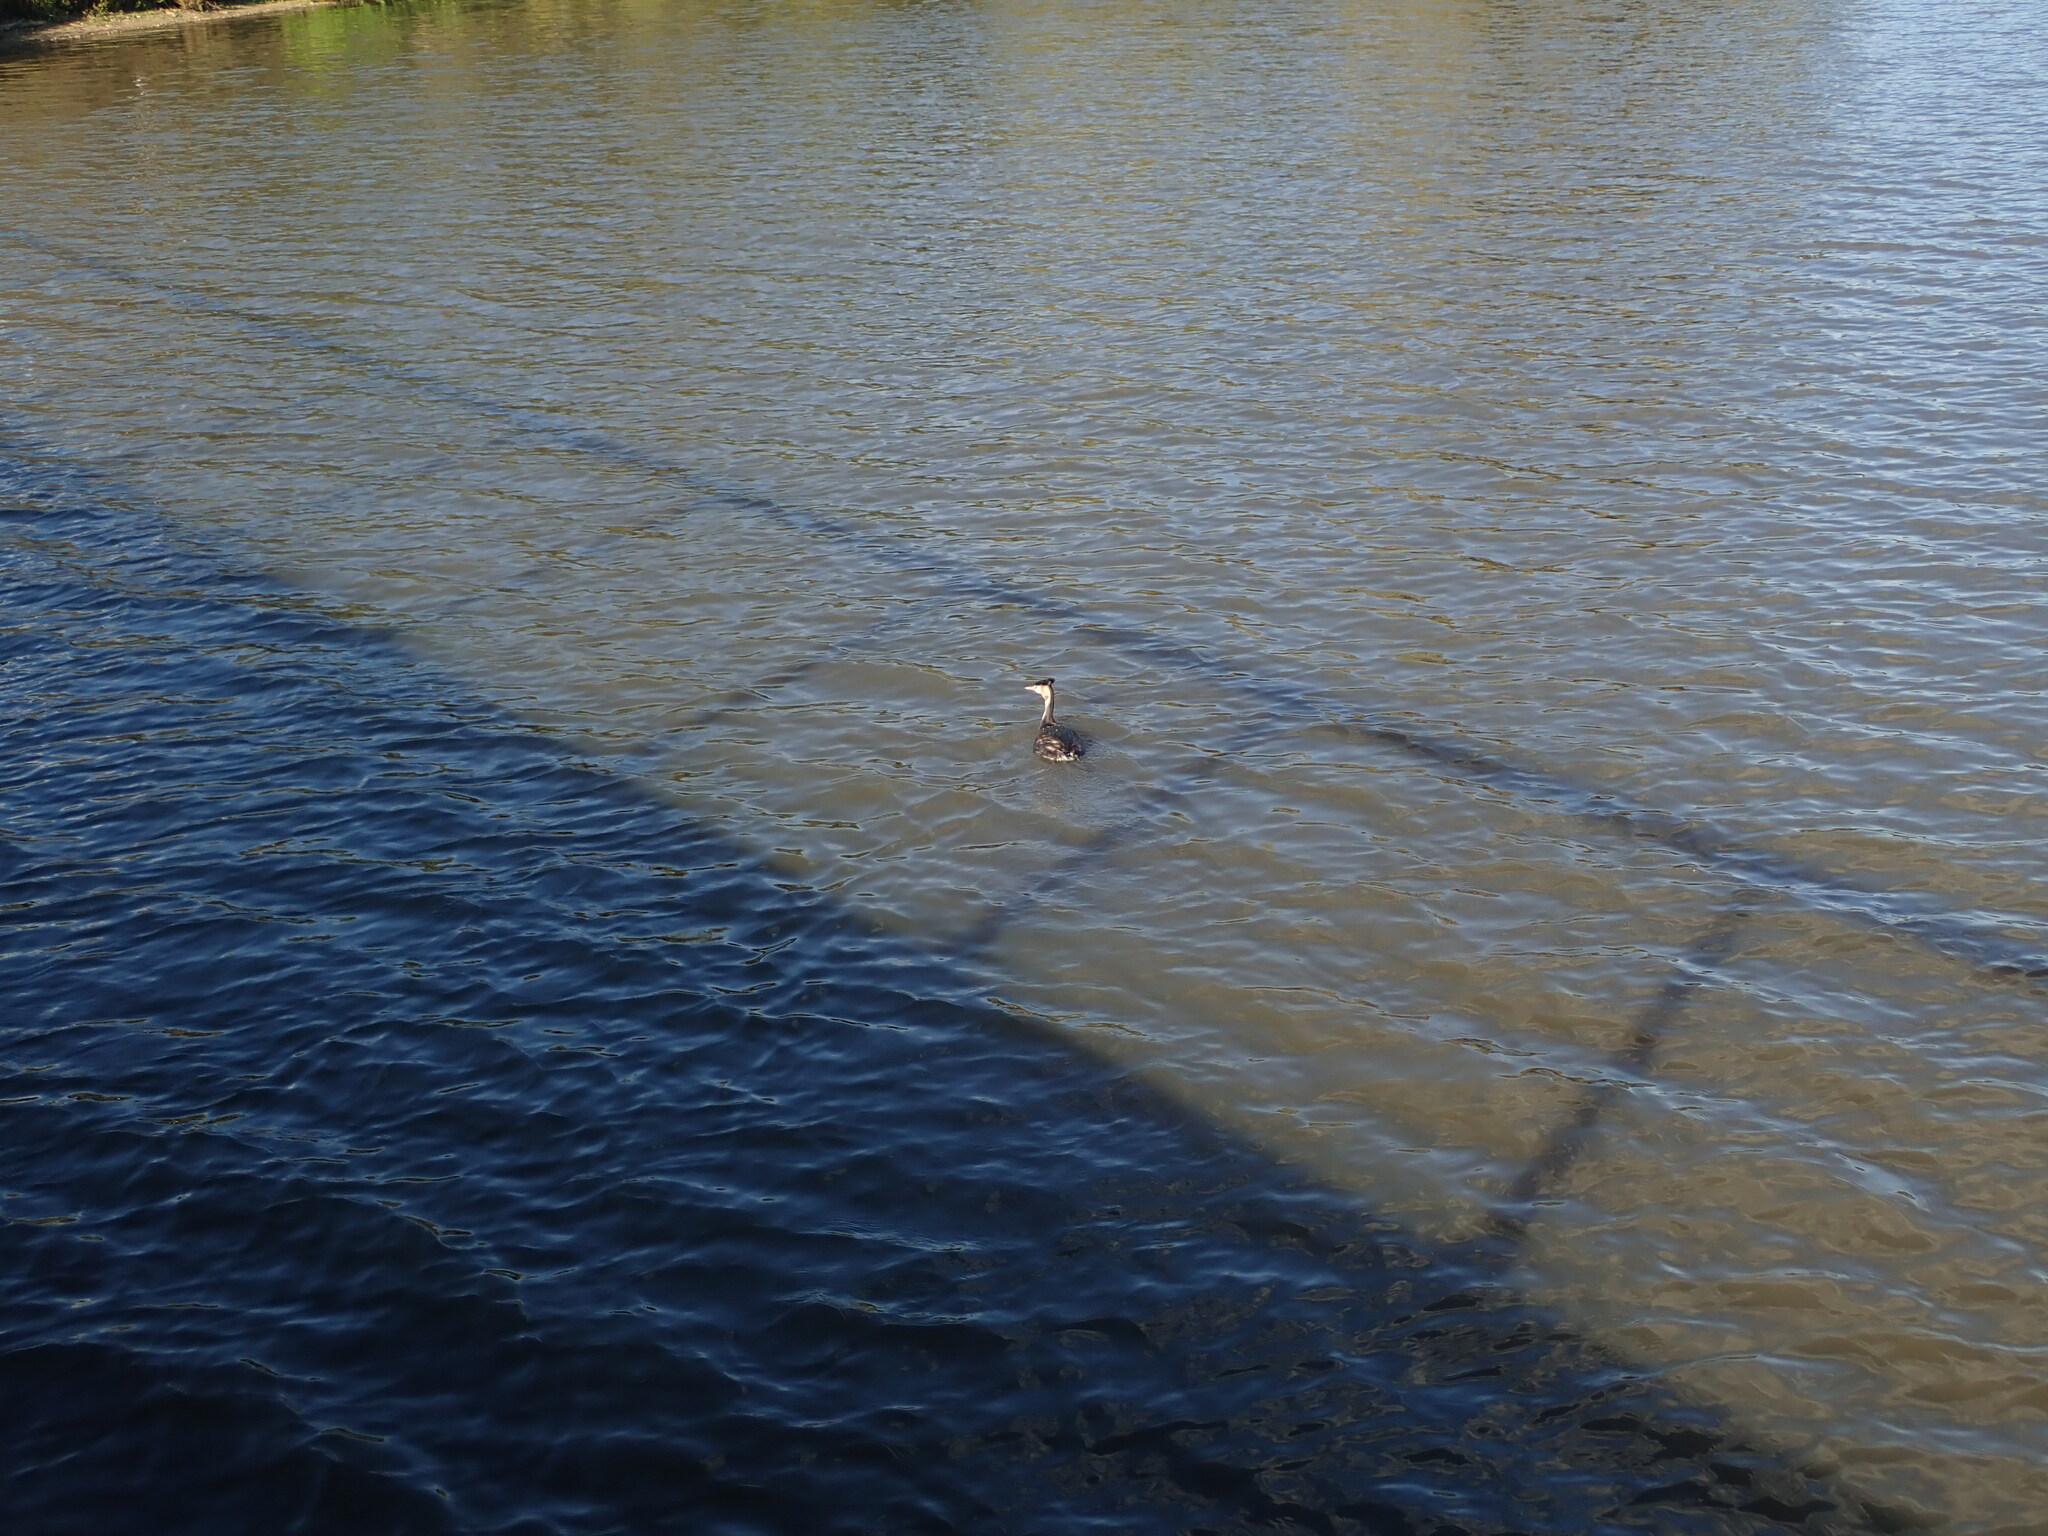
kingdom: Animalia
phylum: Chordata
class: Aves
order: Podicipediformes
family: Podicipedidae
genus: Podiceps
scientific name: Podiceps cristatus
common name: Great crested grebe
